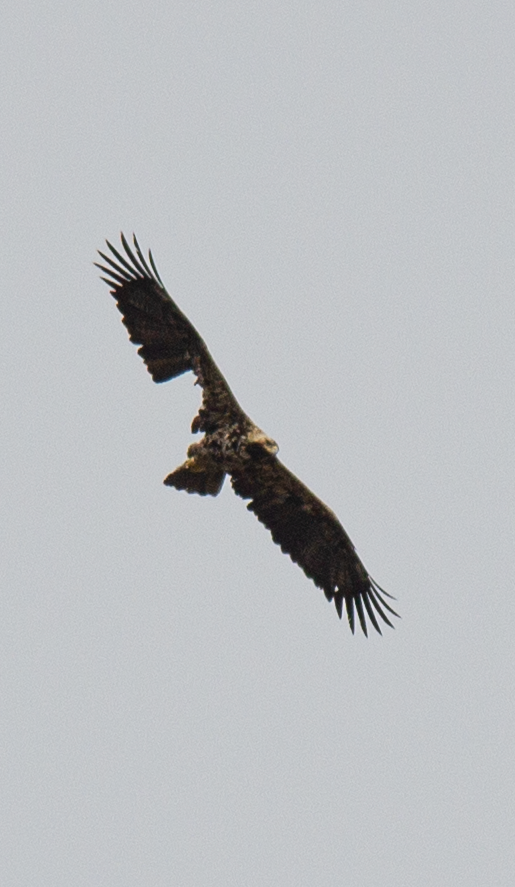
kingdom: Animalia
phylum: Chordata
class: Aves
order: Accipitriformes
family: Accipitridae
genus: Aquila
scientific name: Aquila heliaca
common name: Eastern imperial eagle
